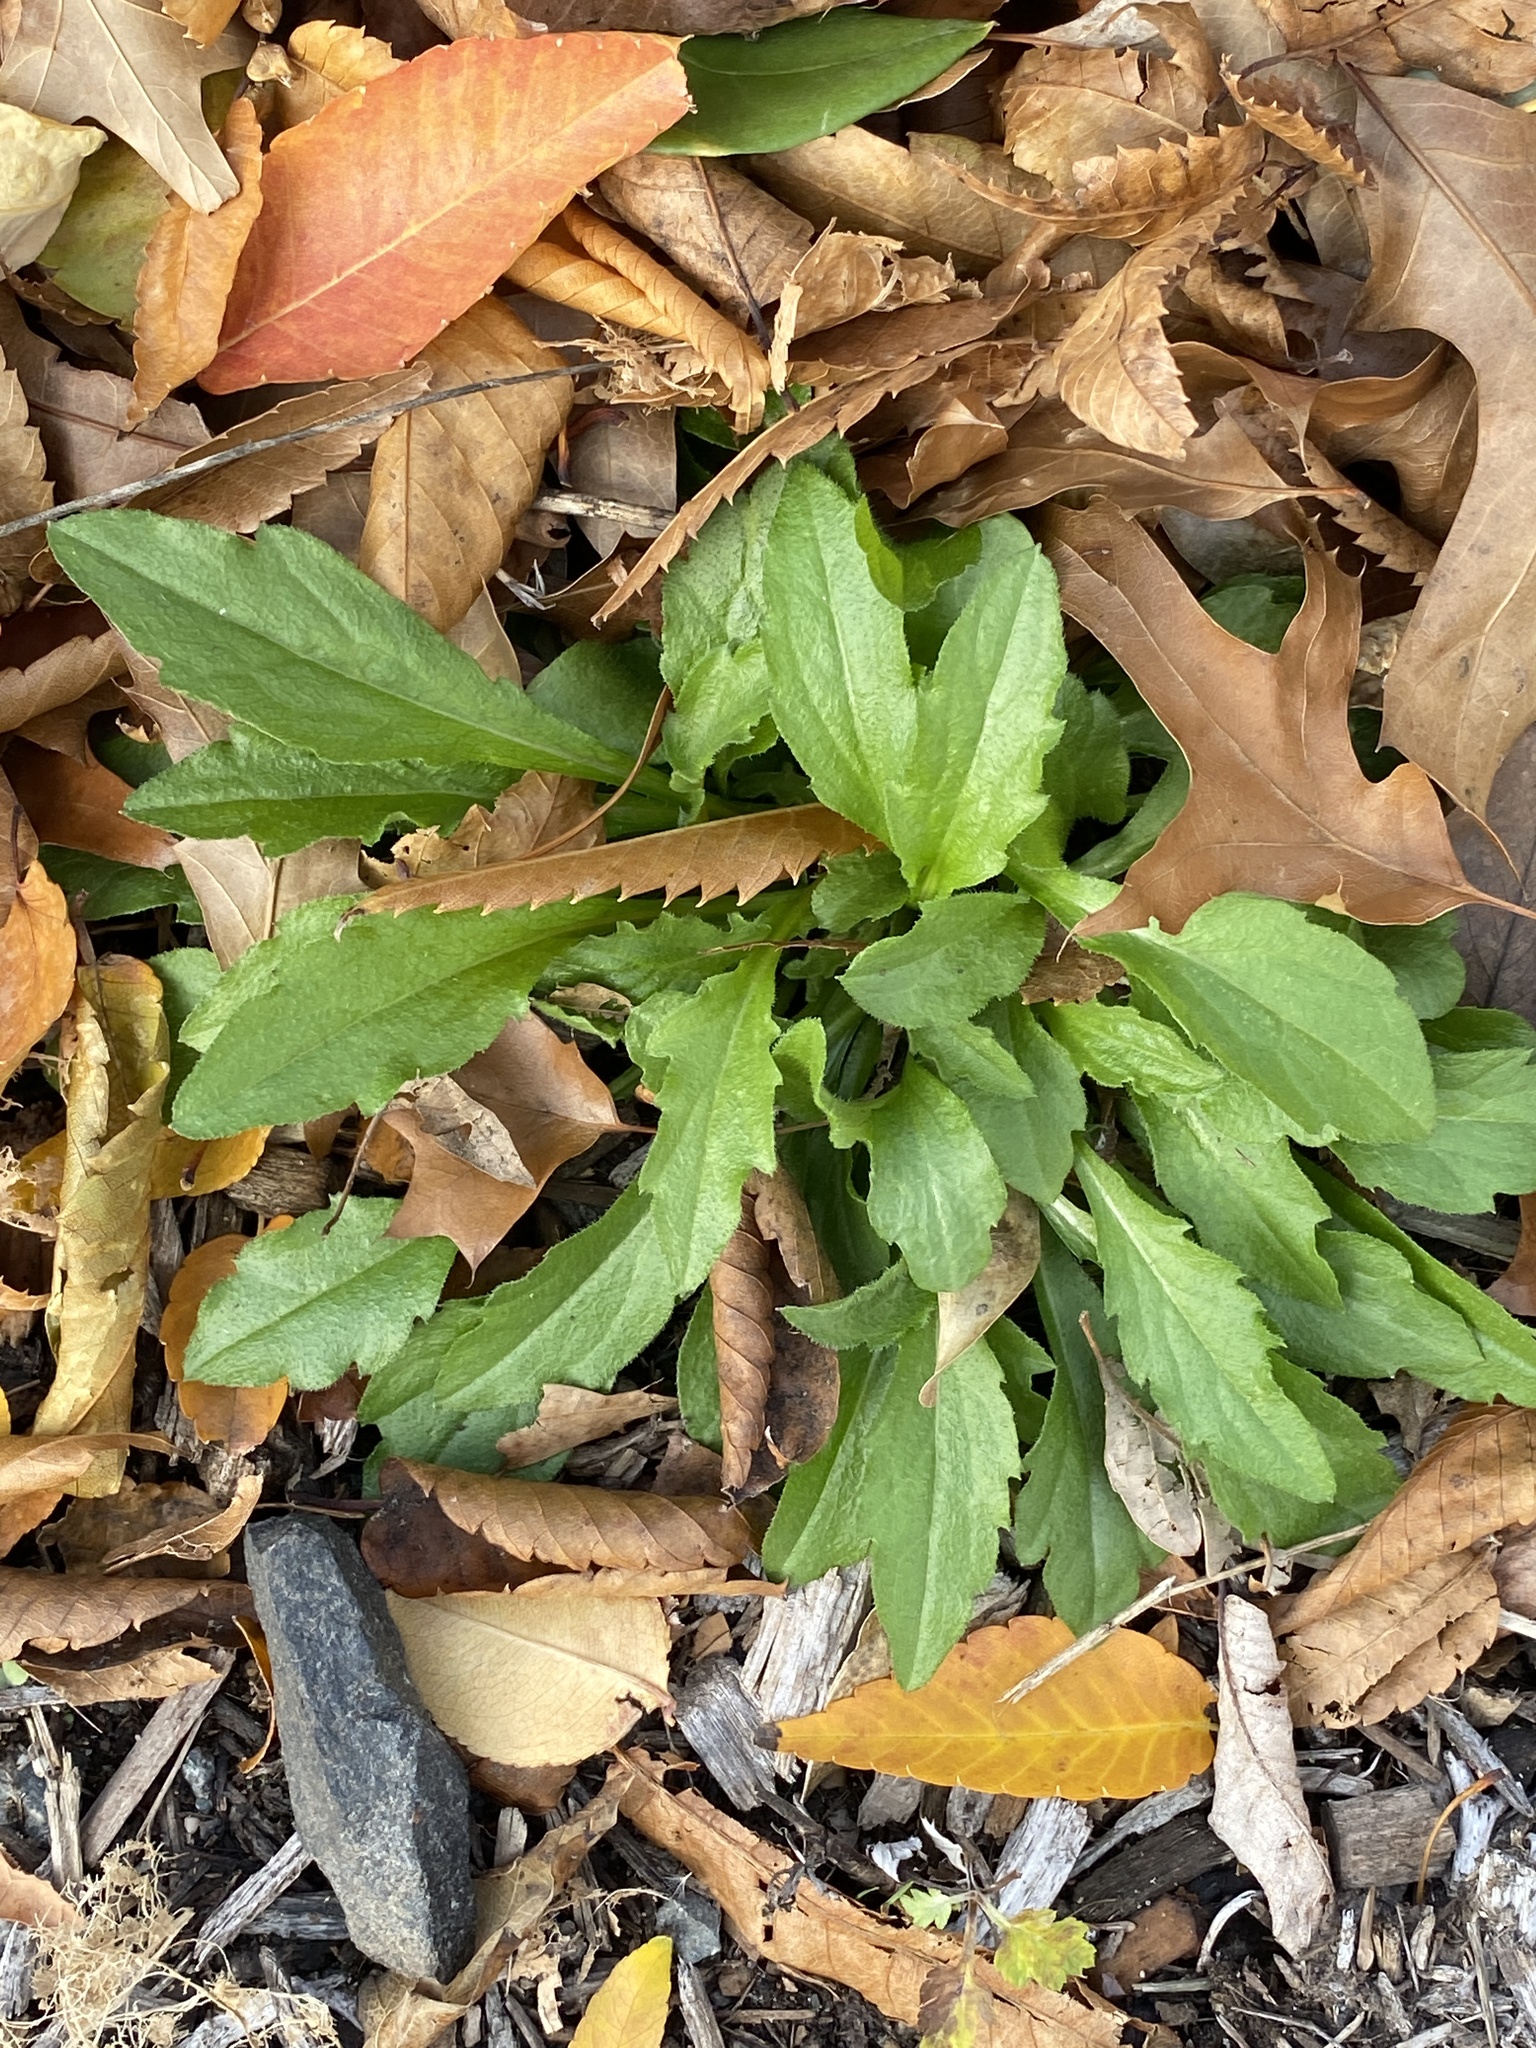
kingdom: Plantae
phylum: Tracheophyta
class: Magnoliopsida
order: Asterales
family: Asteraceae
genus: Erigeron
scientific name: Erigeron canadensis
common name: Canadian fleabane
